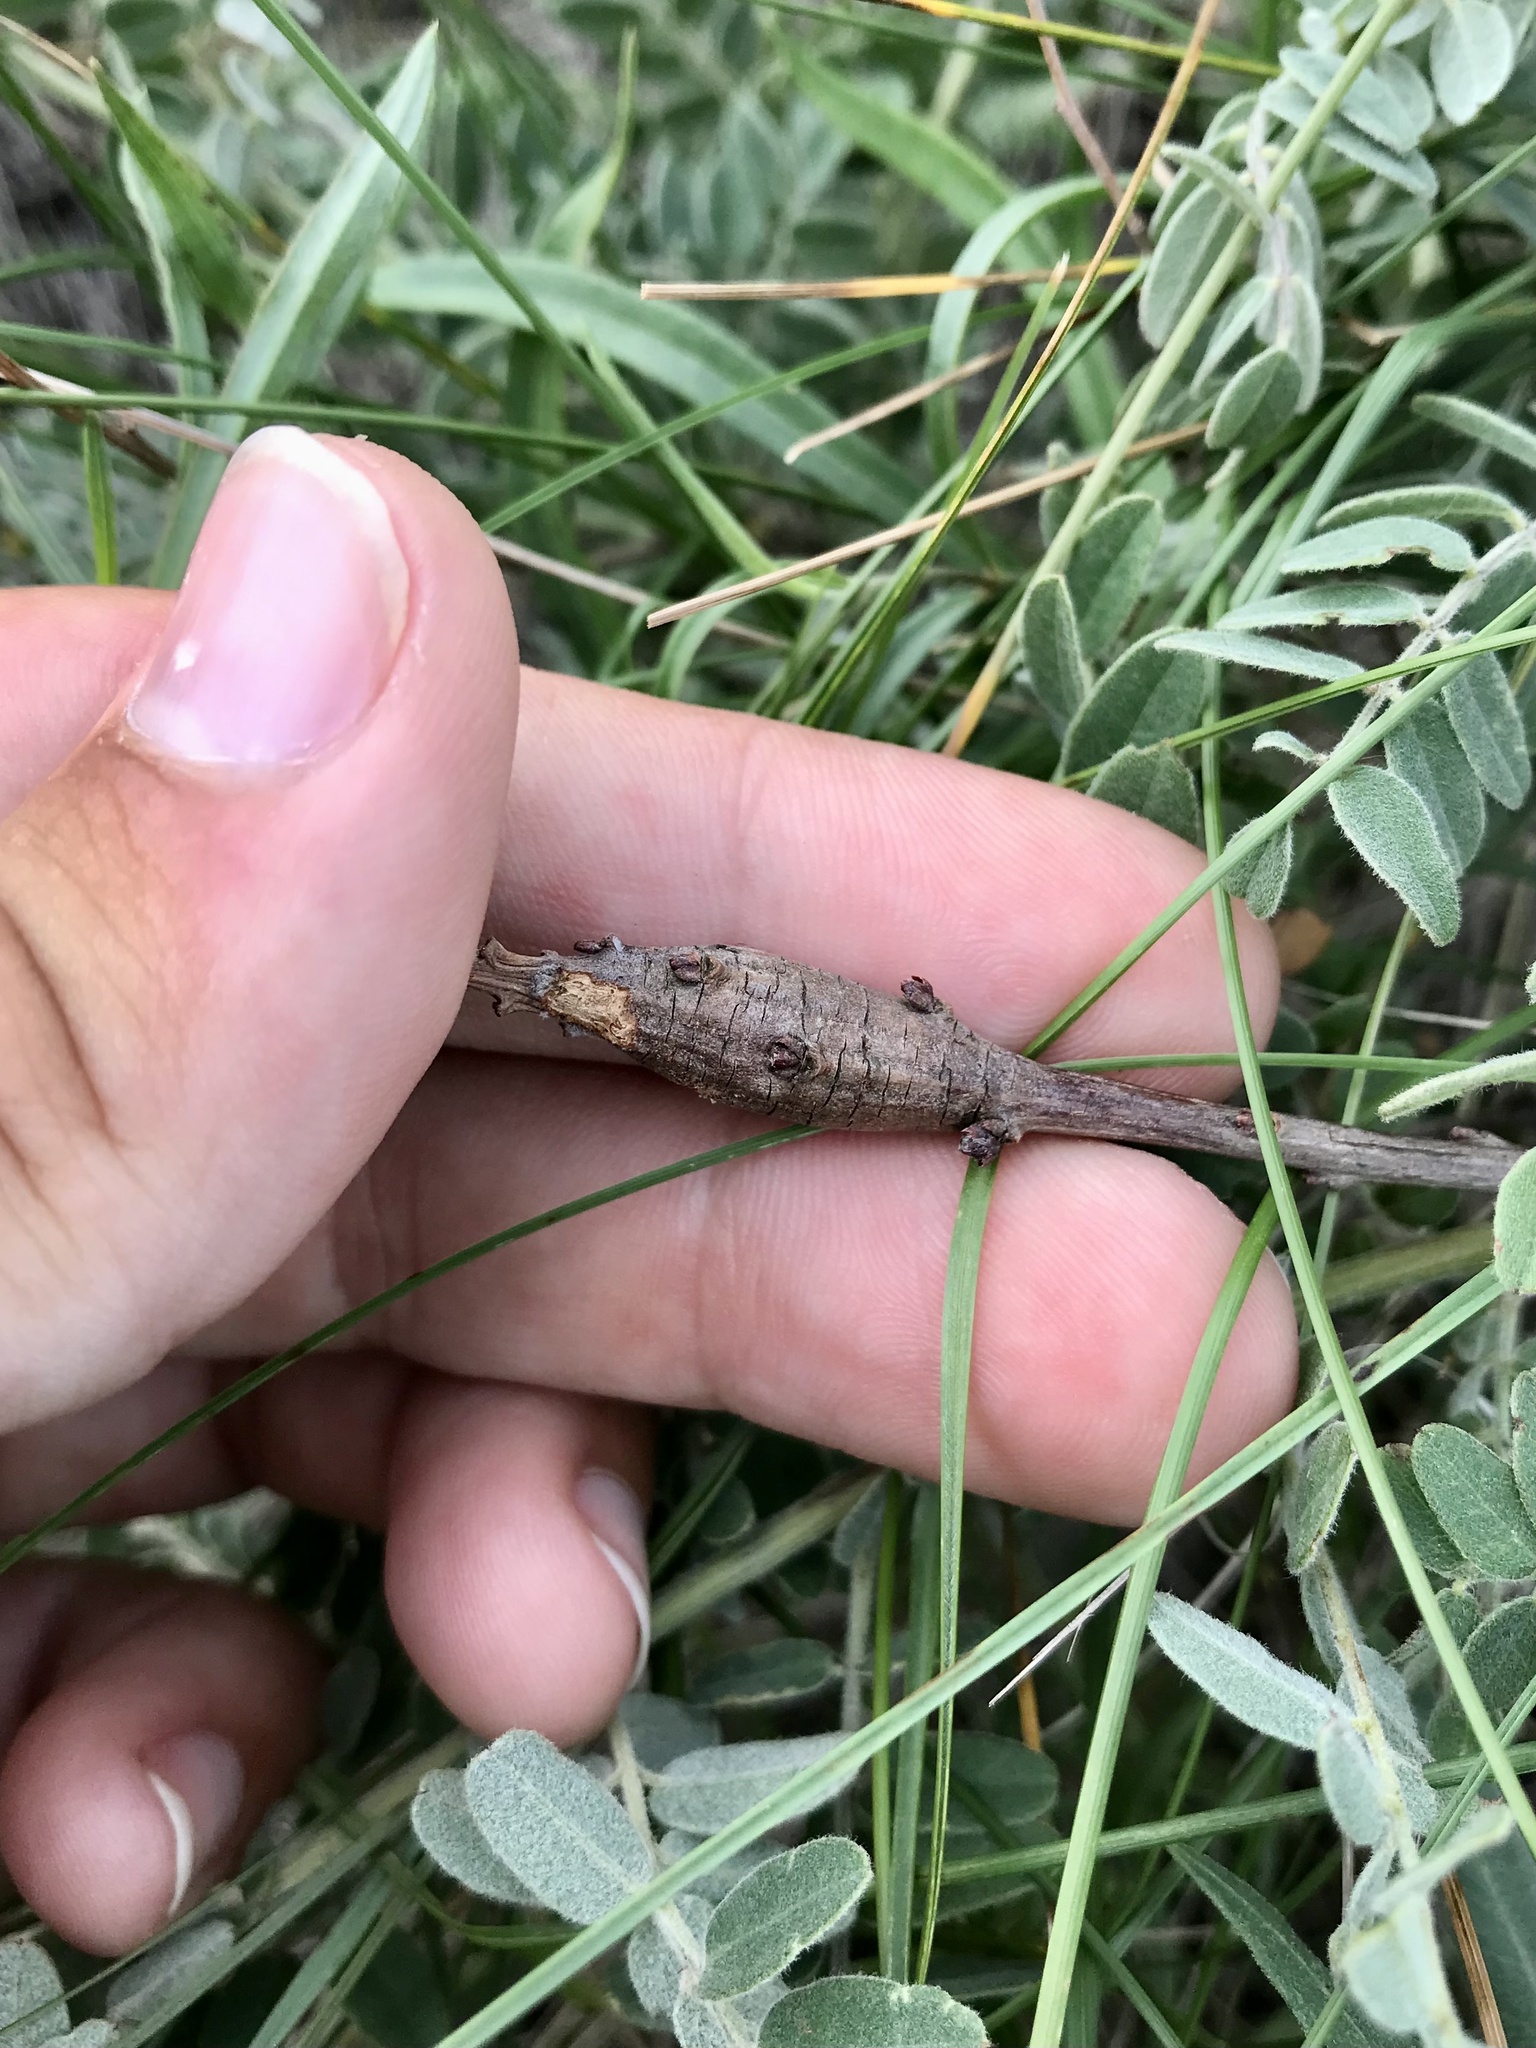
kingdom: Animalia
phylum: Arthropoda
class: Insecta
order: Lepidoptera
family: Cosmopterigidae
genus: Walshia
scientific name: Walshia amorphella
